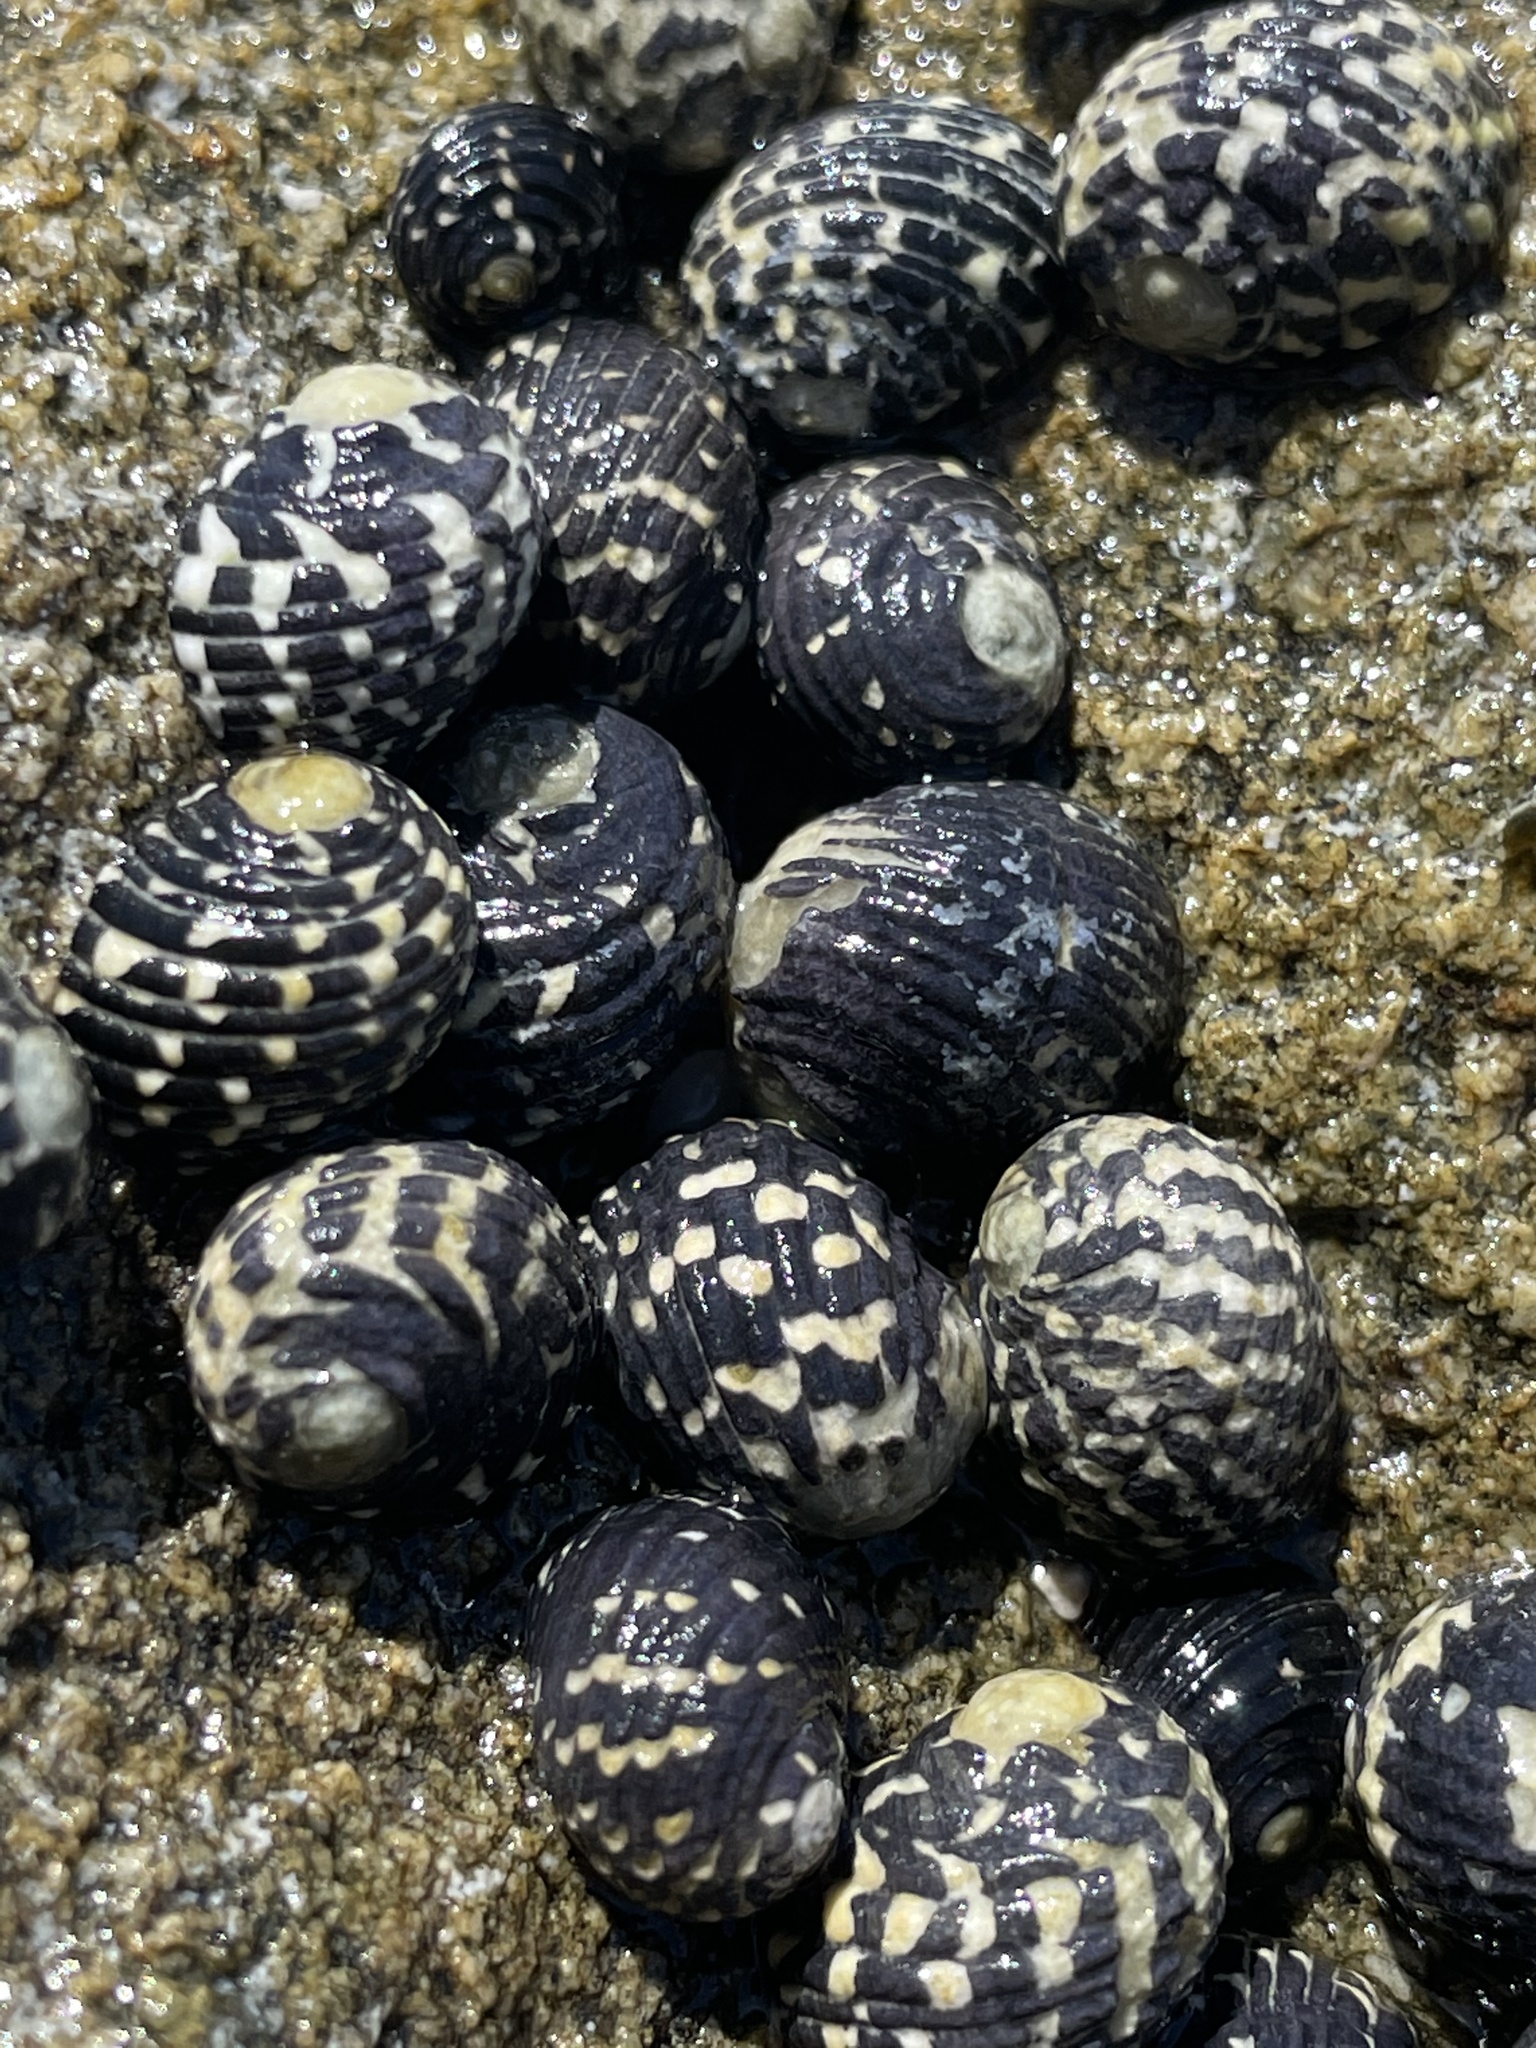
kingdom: Animalia
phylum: Mollusca
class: Gastropoda
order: Cycloneritida
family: Neritidae
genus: Nerita
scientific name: Nerita tessellata
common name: Checkered nerite
